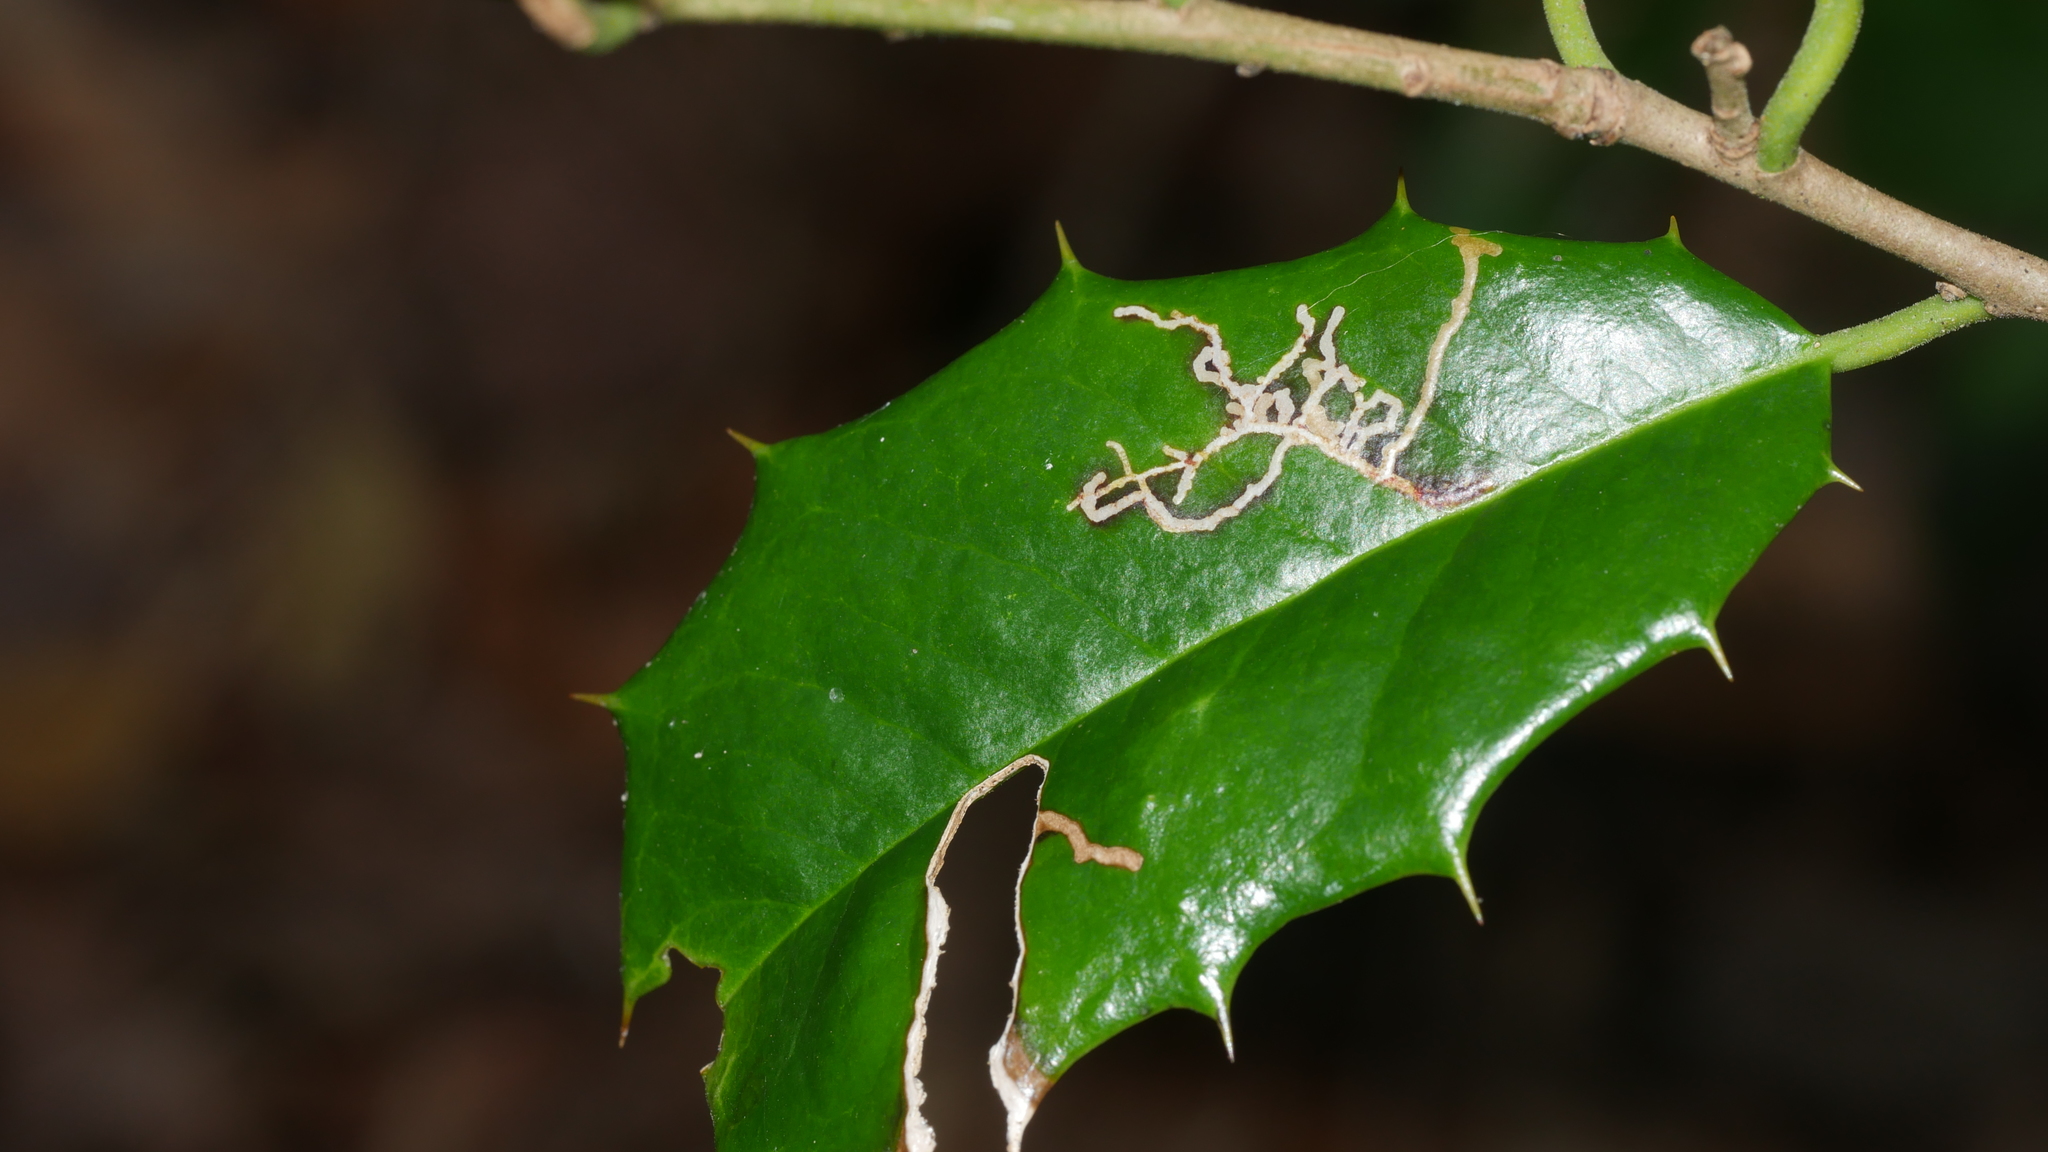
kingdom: Animalia
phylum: Arthropoda
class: Insecta
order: Lepidoptera
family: Tortricidae
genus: Rhopobota
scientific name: Rhopobota
